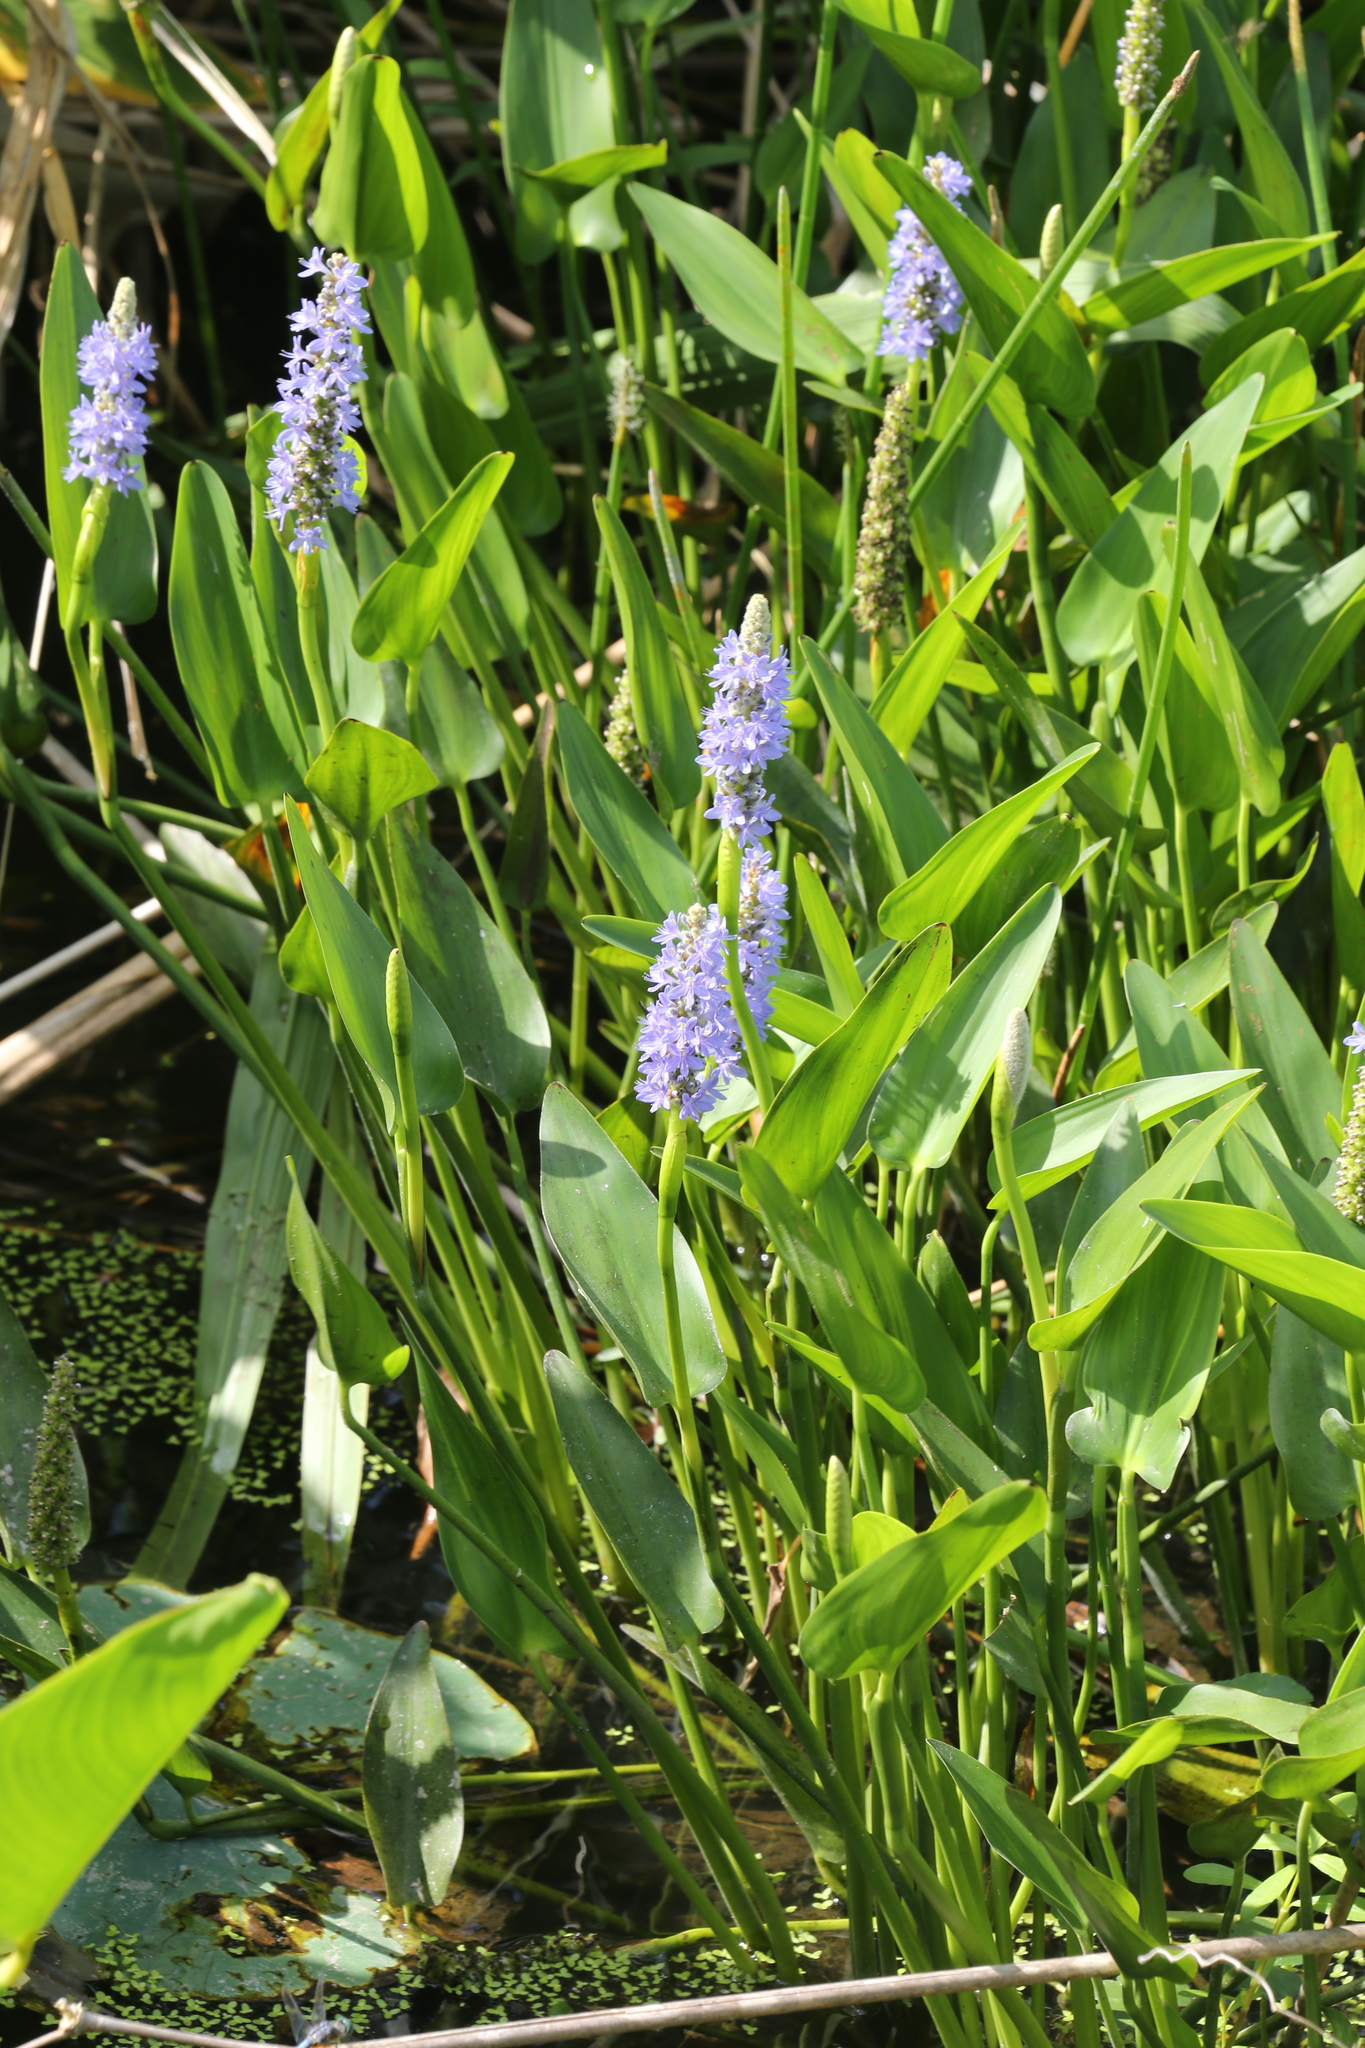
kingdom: Plantae
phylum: Tracheophyta
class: Liliopsida
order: Commelinales
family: Pontederiaceae
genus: Pontederia
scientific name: Pontederia cordata
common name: Pickerelweed
